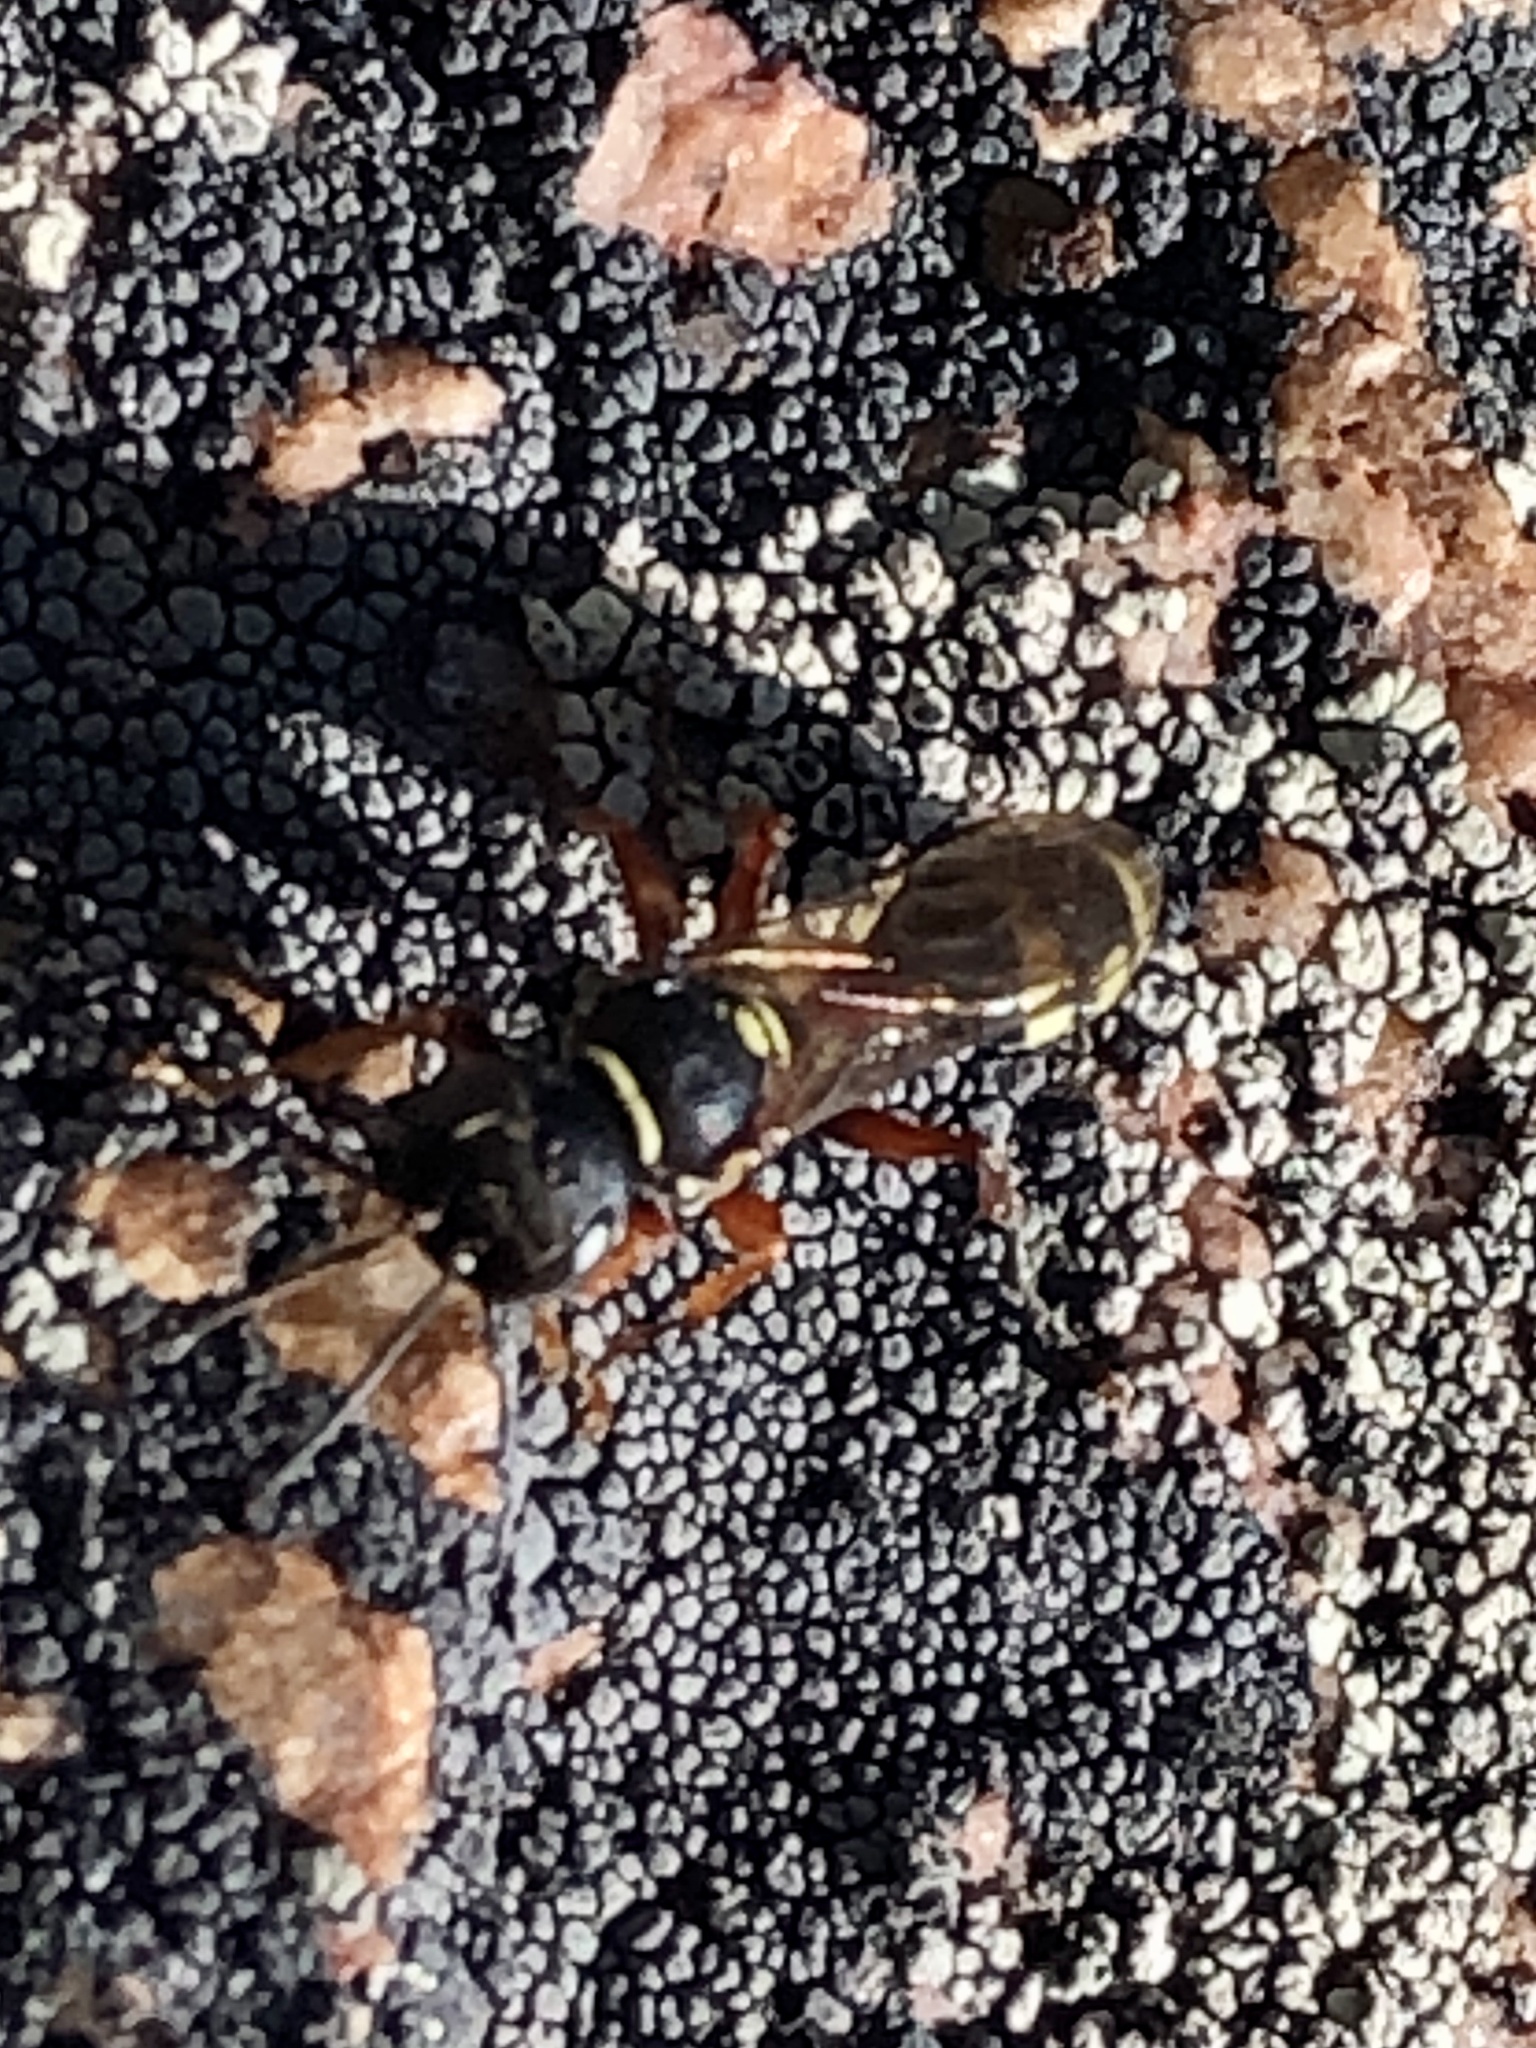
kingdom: Animalia
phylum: Arthropoda
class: Insecta
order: Hymenoptera
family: Crabronidae
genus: Mellinus
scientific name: Mellinus rufinodus
